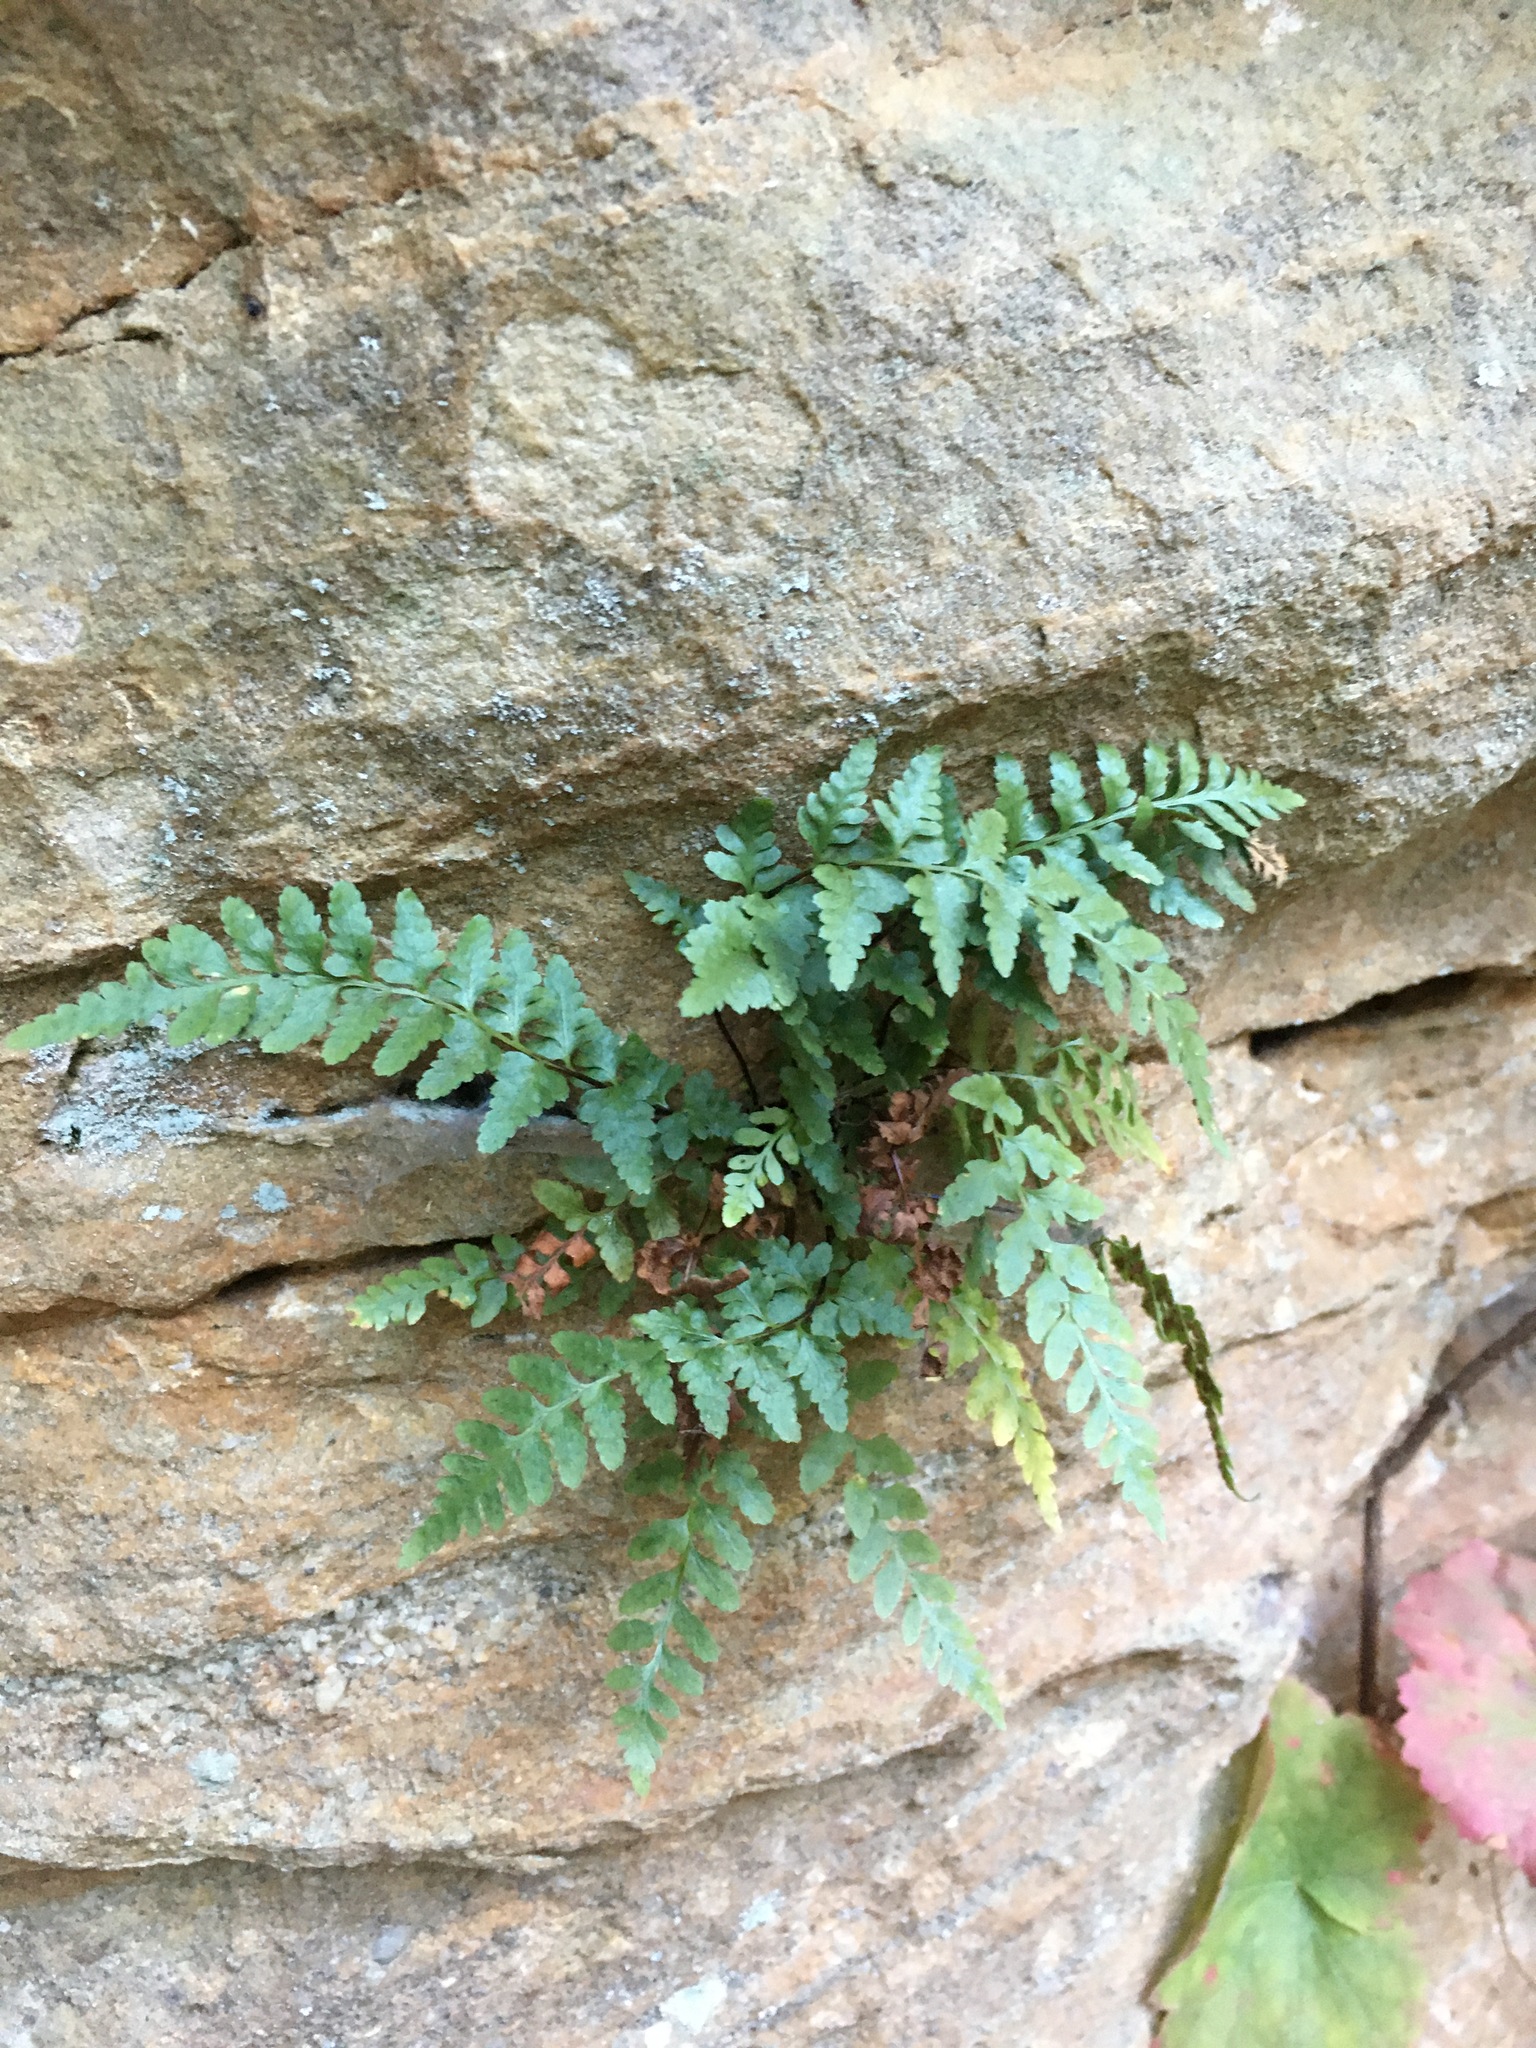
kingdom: Plantae
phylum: Tracheophyta
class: Polypodiopsida
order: Polypodiales
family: Aspleniaceae
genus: Asplenium
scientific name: Asplenium bradleyi
